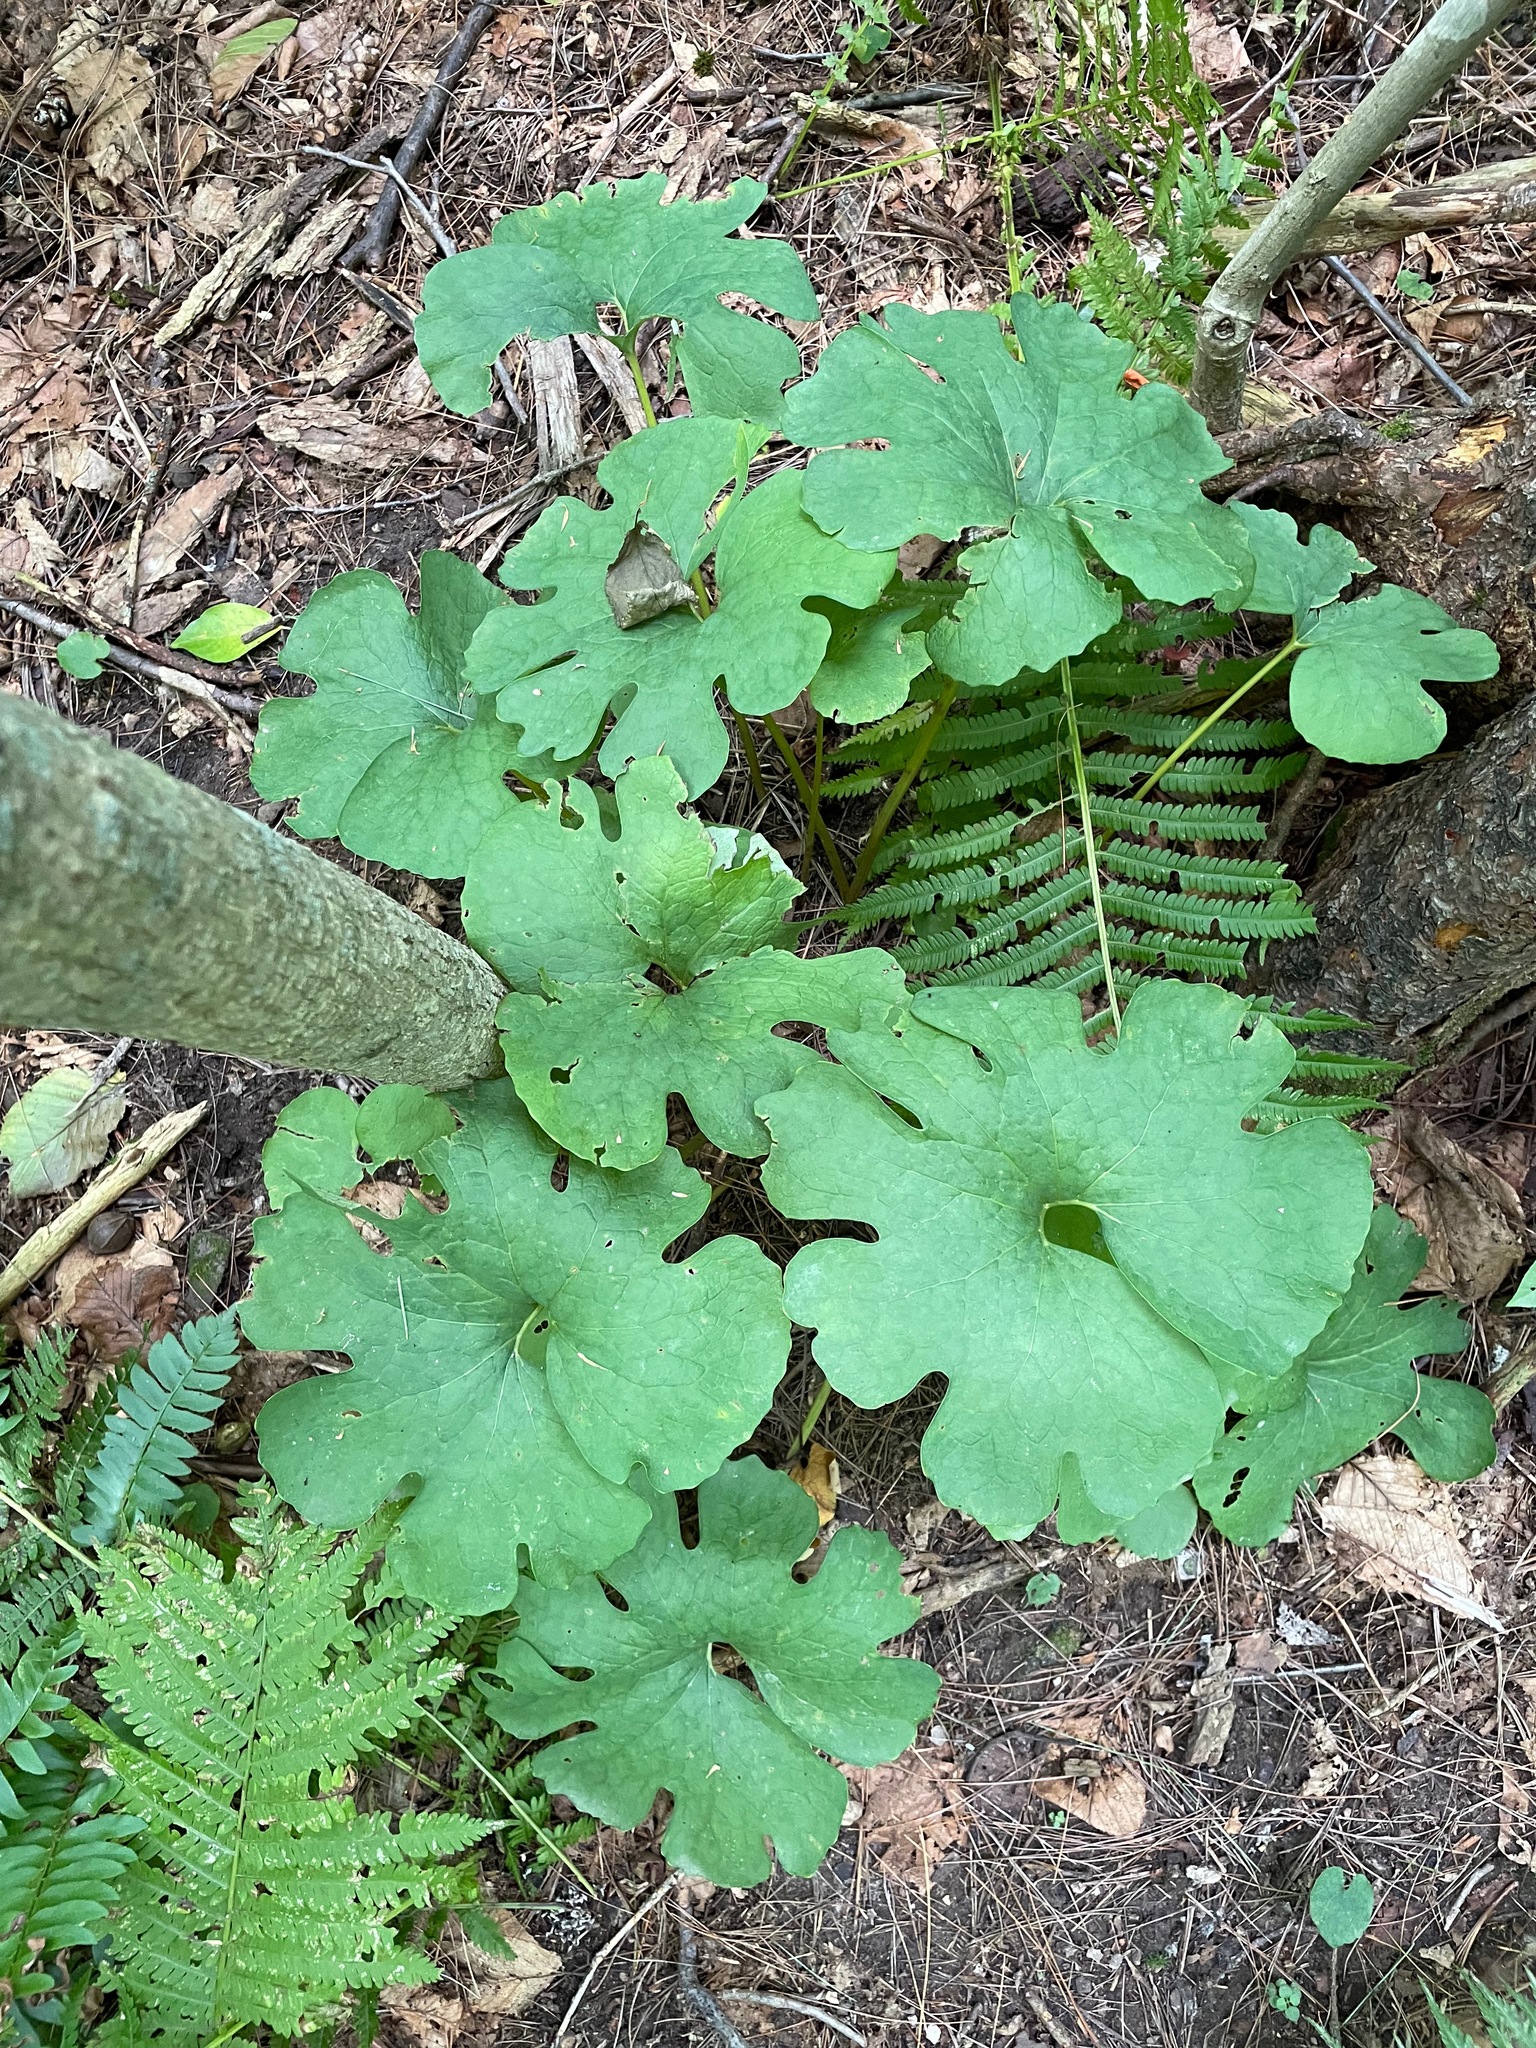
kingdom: Plantae
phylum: Tracheophyta
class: Magnoliopsida
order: Ranunculales
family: Papaveraceae
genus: Sanguinaria
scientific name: Sanguinaria canadensis
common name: Bloodroot
